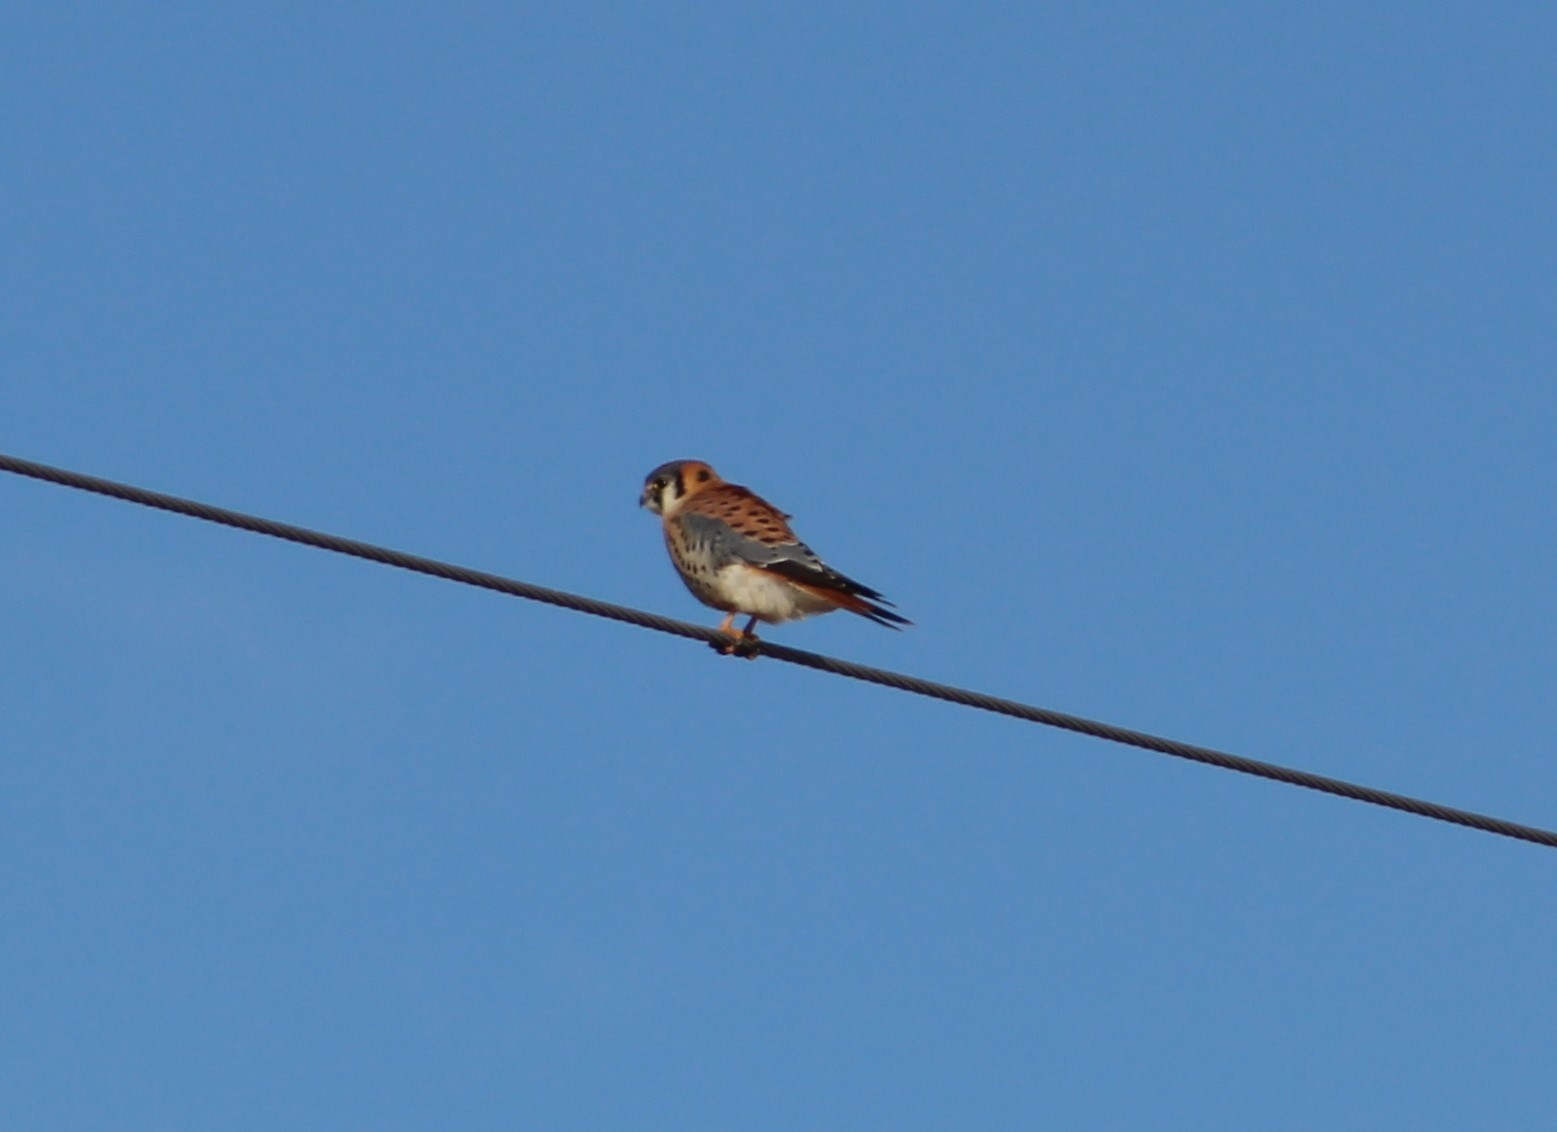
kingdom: Animalia
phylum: Chordata
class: Aves
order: Falconiformes
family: Falconidae
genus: Falco
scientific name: Falco sparverius
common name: American kestrel
